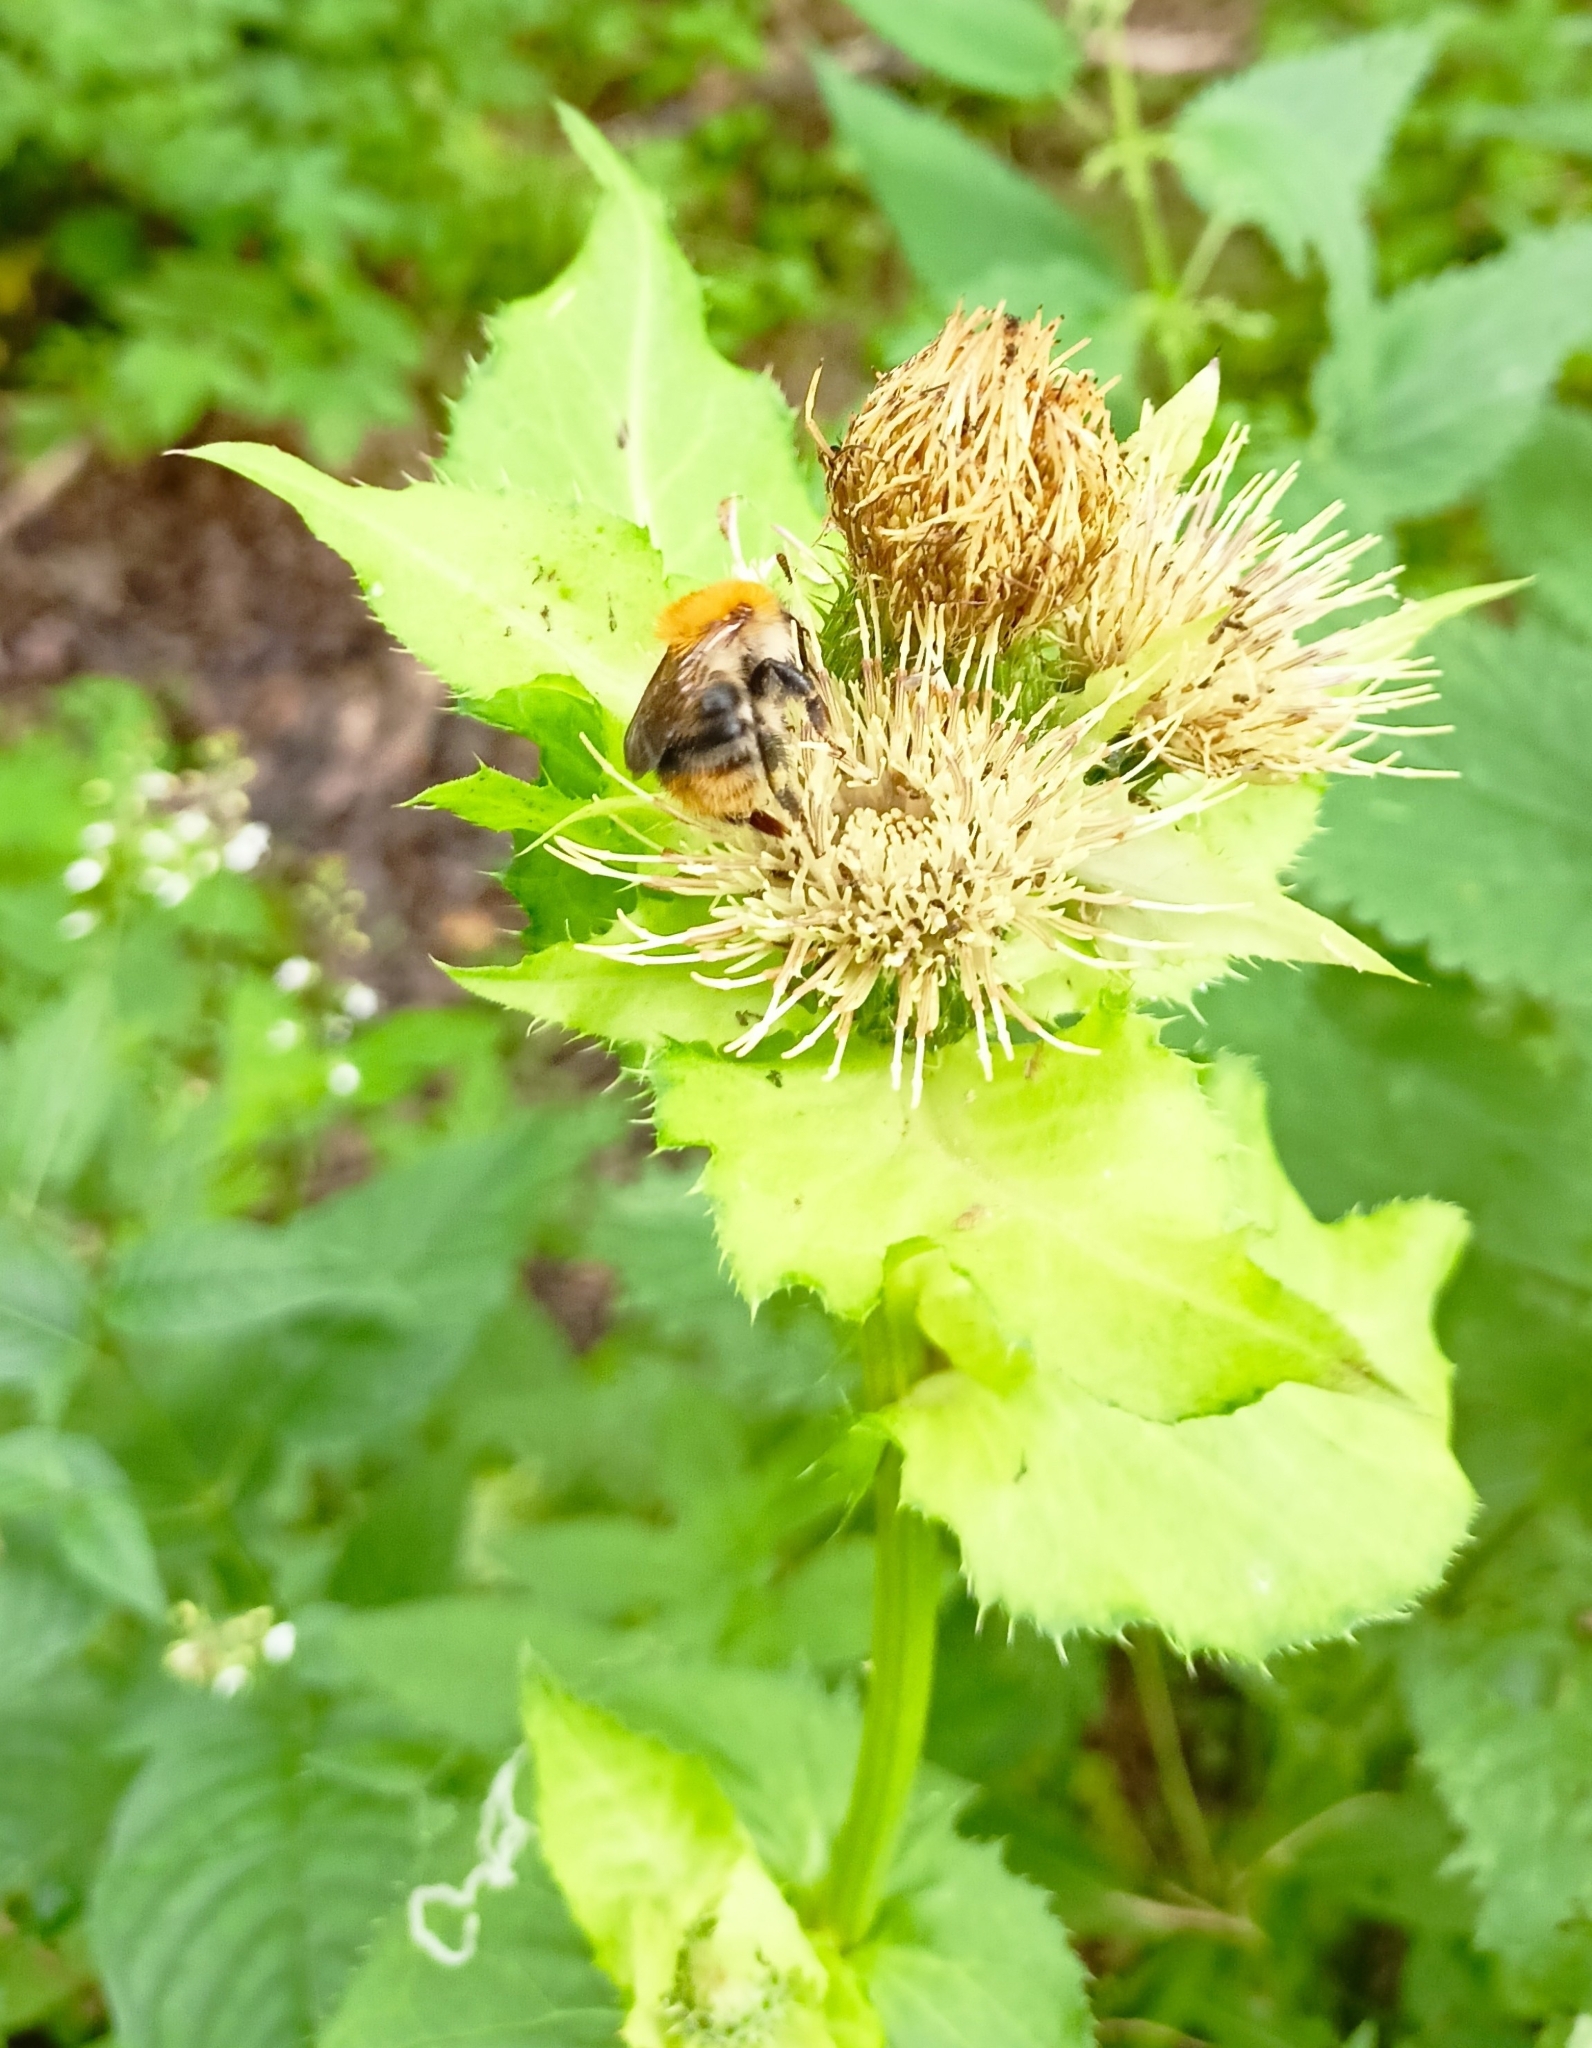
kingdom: Plantae
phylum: Tracheophyta
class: Magnoliopsida
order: Asterales
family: Asteraceae
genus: Cirsium
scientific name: Cirsium oleraceum
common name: Cabbage thistle
